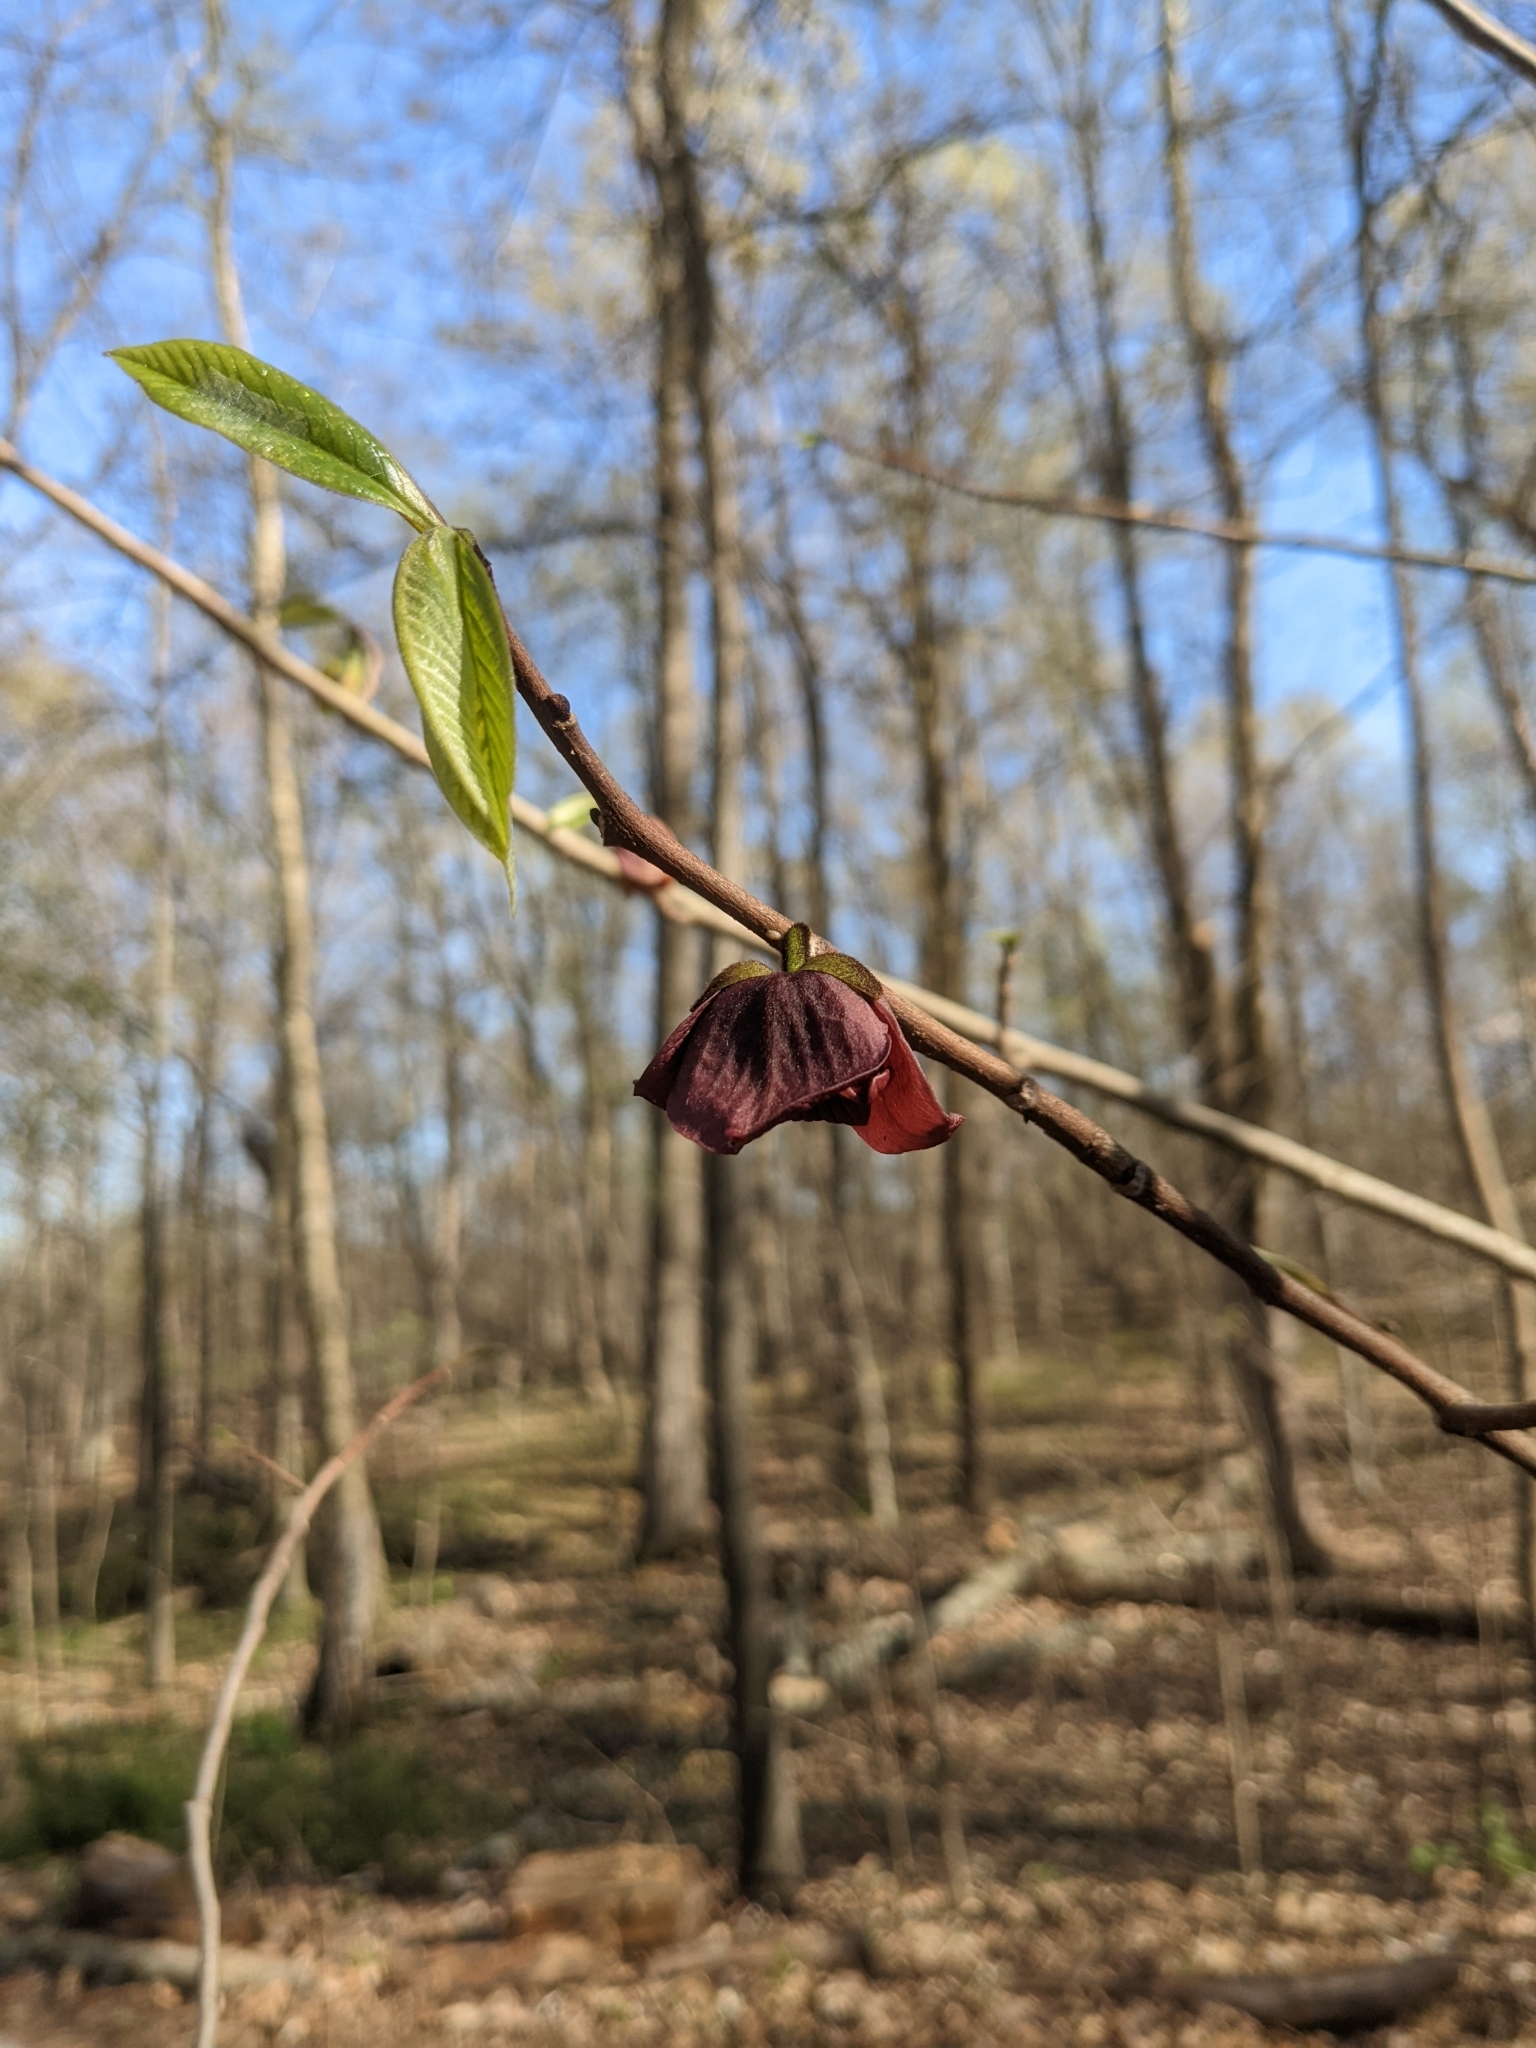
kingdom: Plantae
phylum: Tracheophyta
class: Magnoliopsida
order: Magnoliales
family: Annonaceae
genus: Asimina
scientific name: Asimina triloba
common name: Dog-banana
